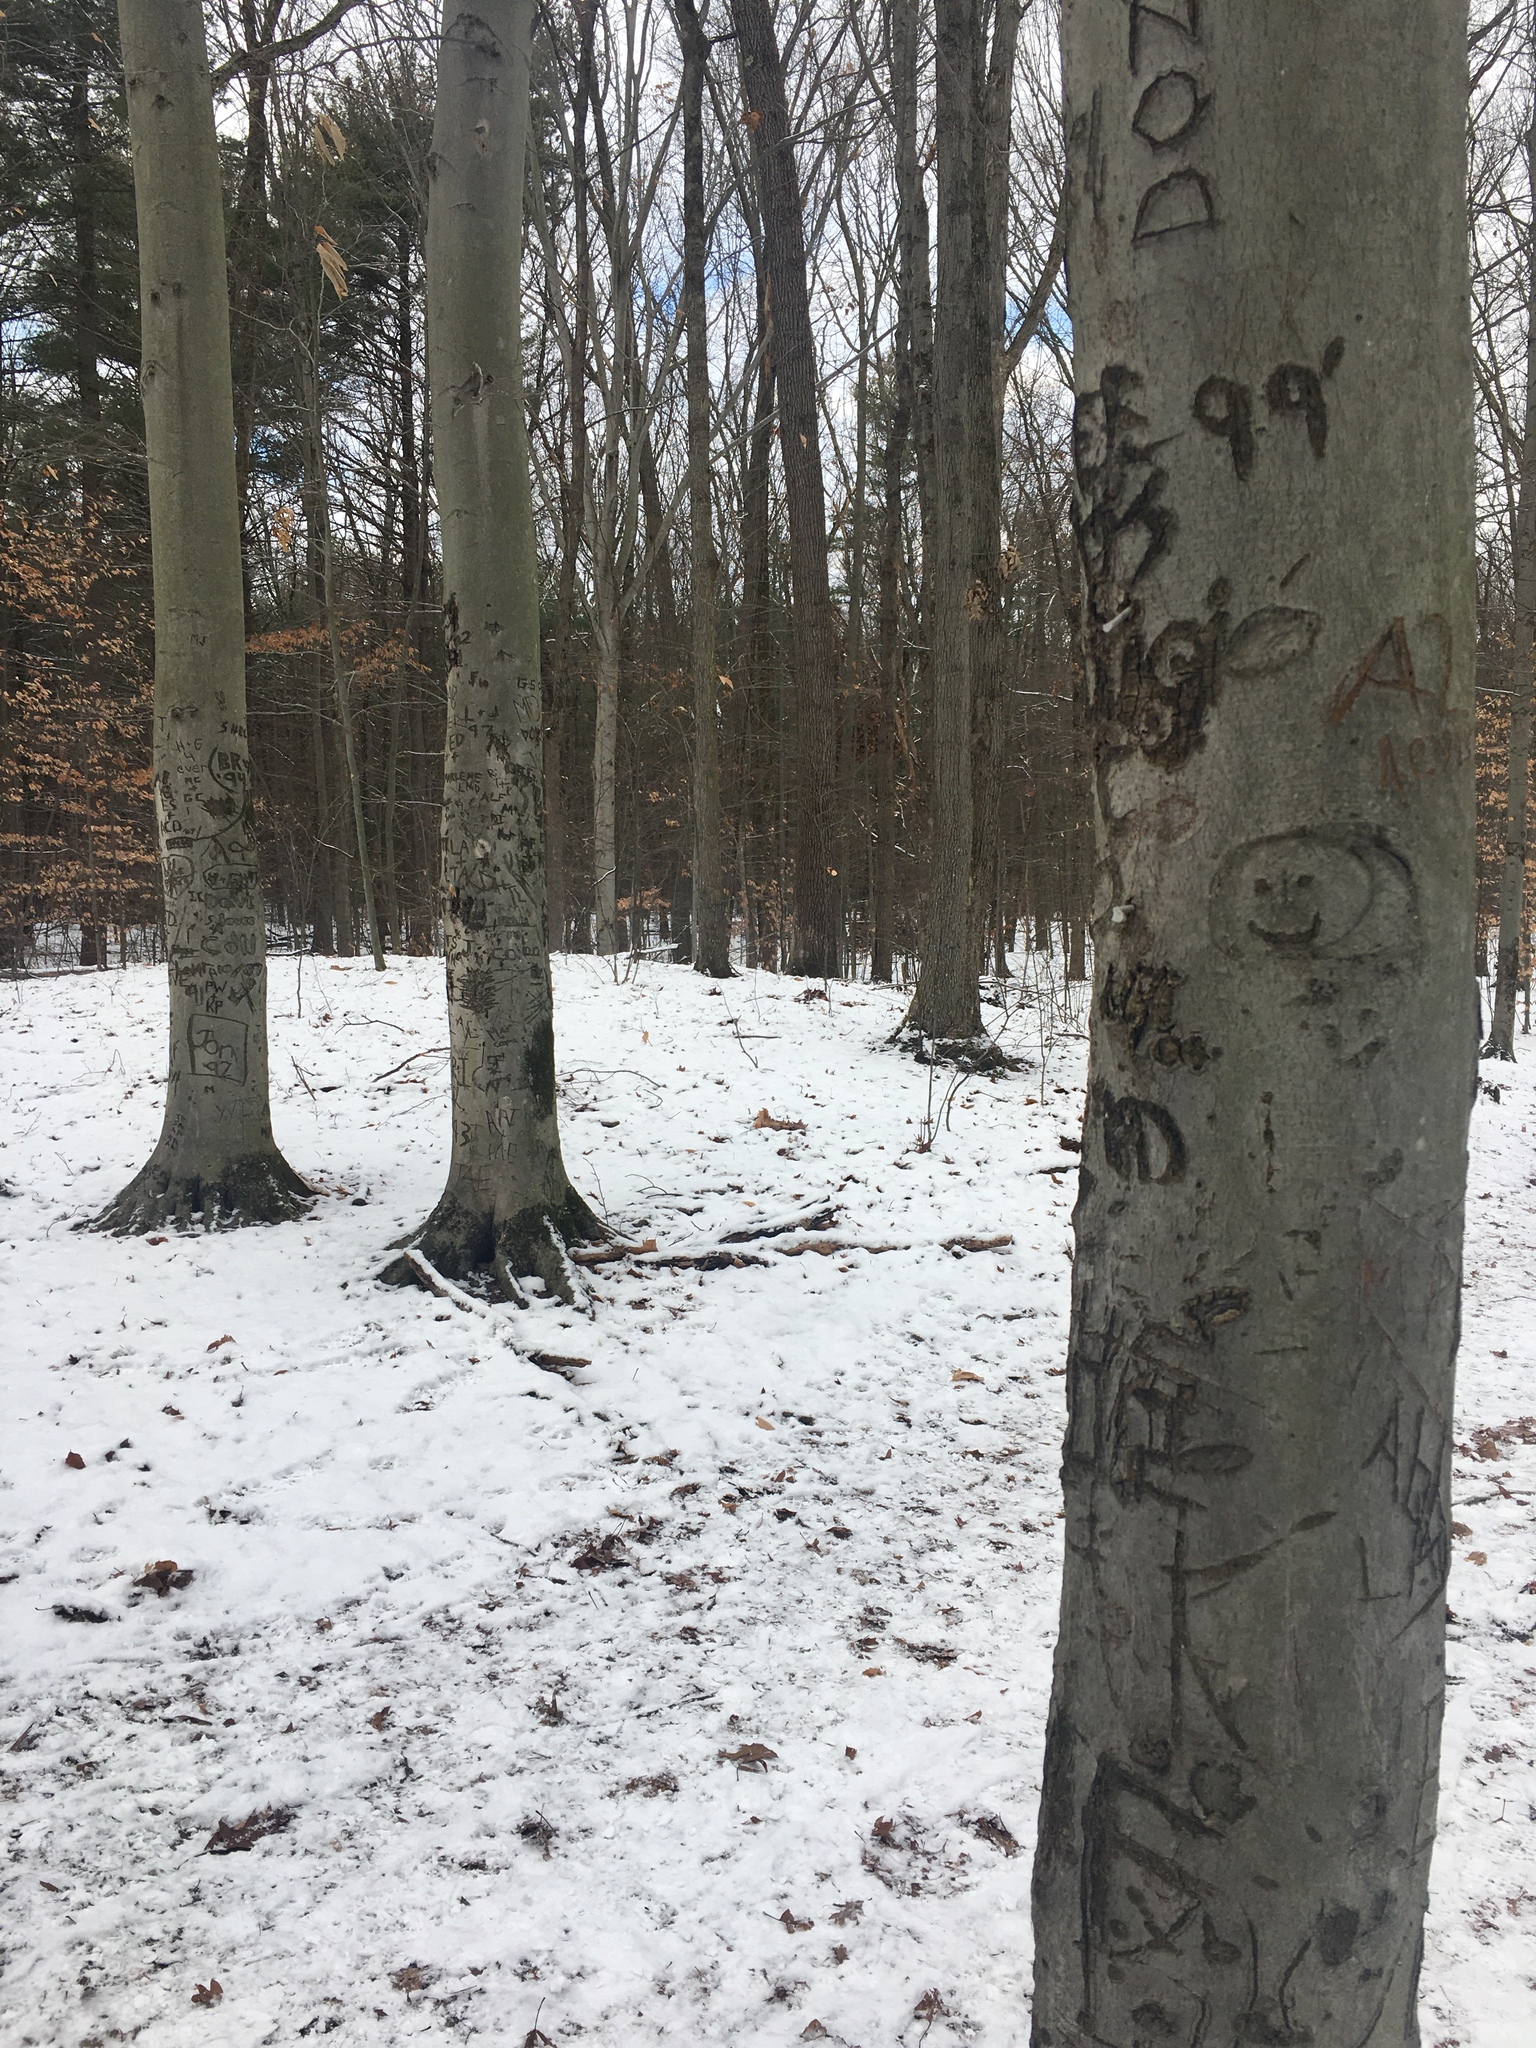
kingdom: Animalia
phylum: Arthropoda
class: Insecta
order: Hemiptera
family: Eriococcidae
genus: Cryptococcus
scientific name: Cryptococcus fagisuga
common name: Beech scale
